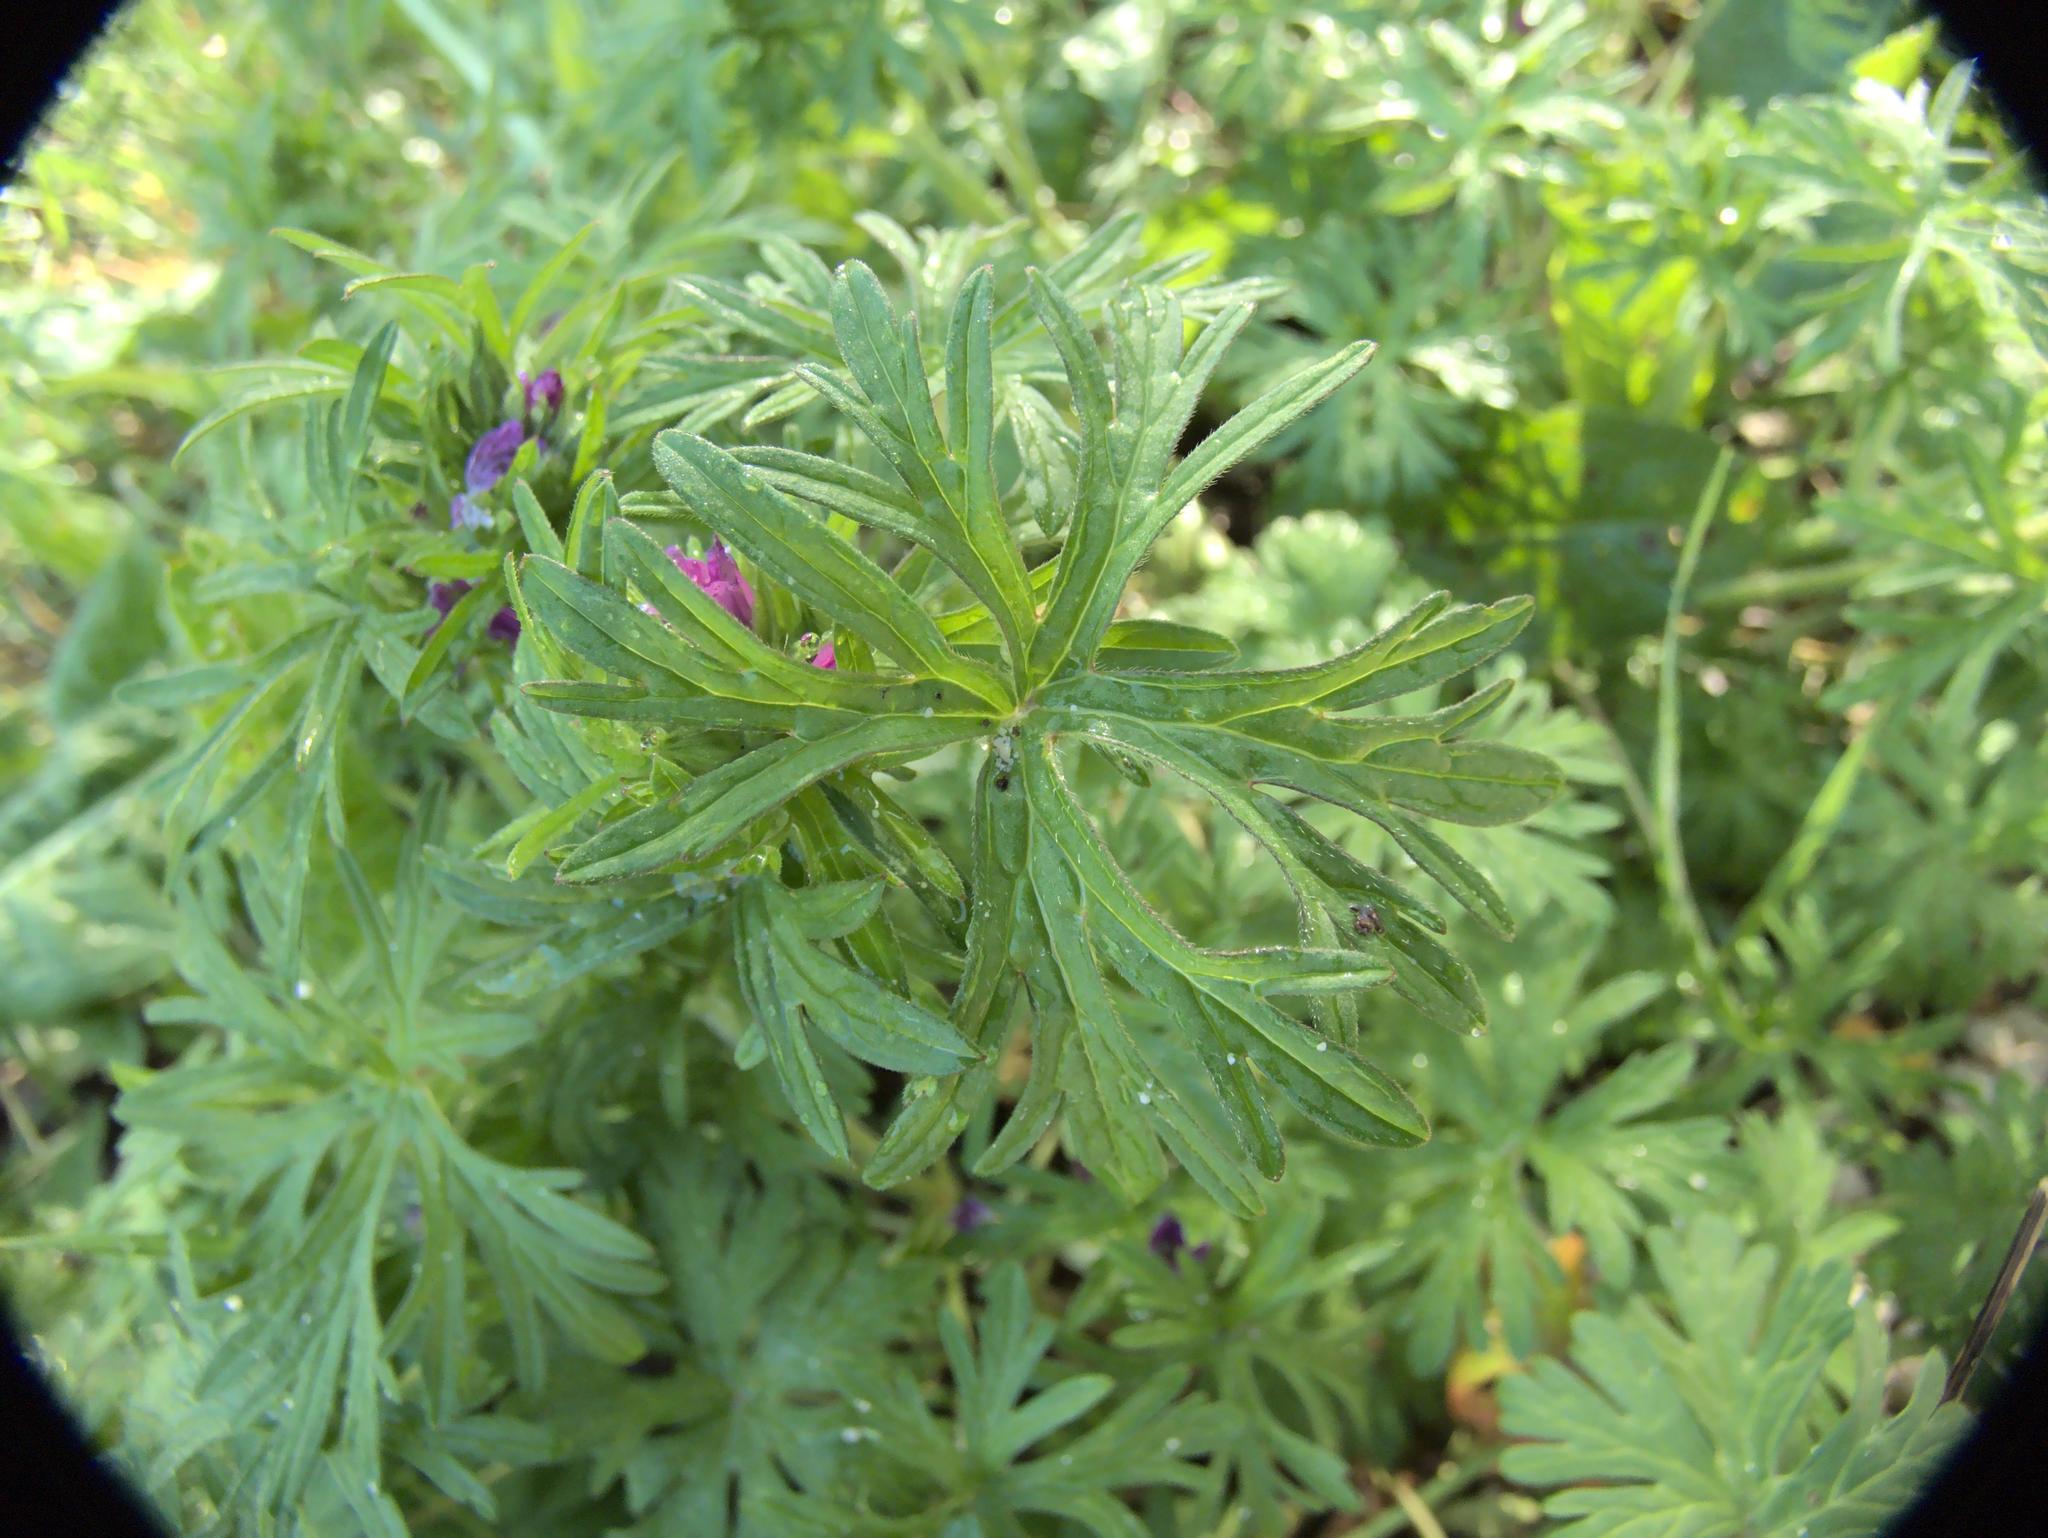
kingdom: Plantae
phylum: Tracheophyta
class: Magnoliopsida
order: Geraniales
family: Geraniaceae
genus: Geranium
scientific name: Geranium dissectum
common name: Cut-leaved crane's-bill
